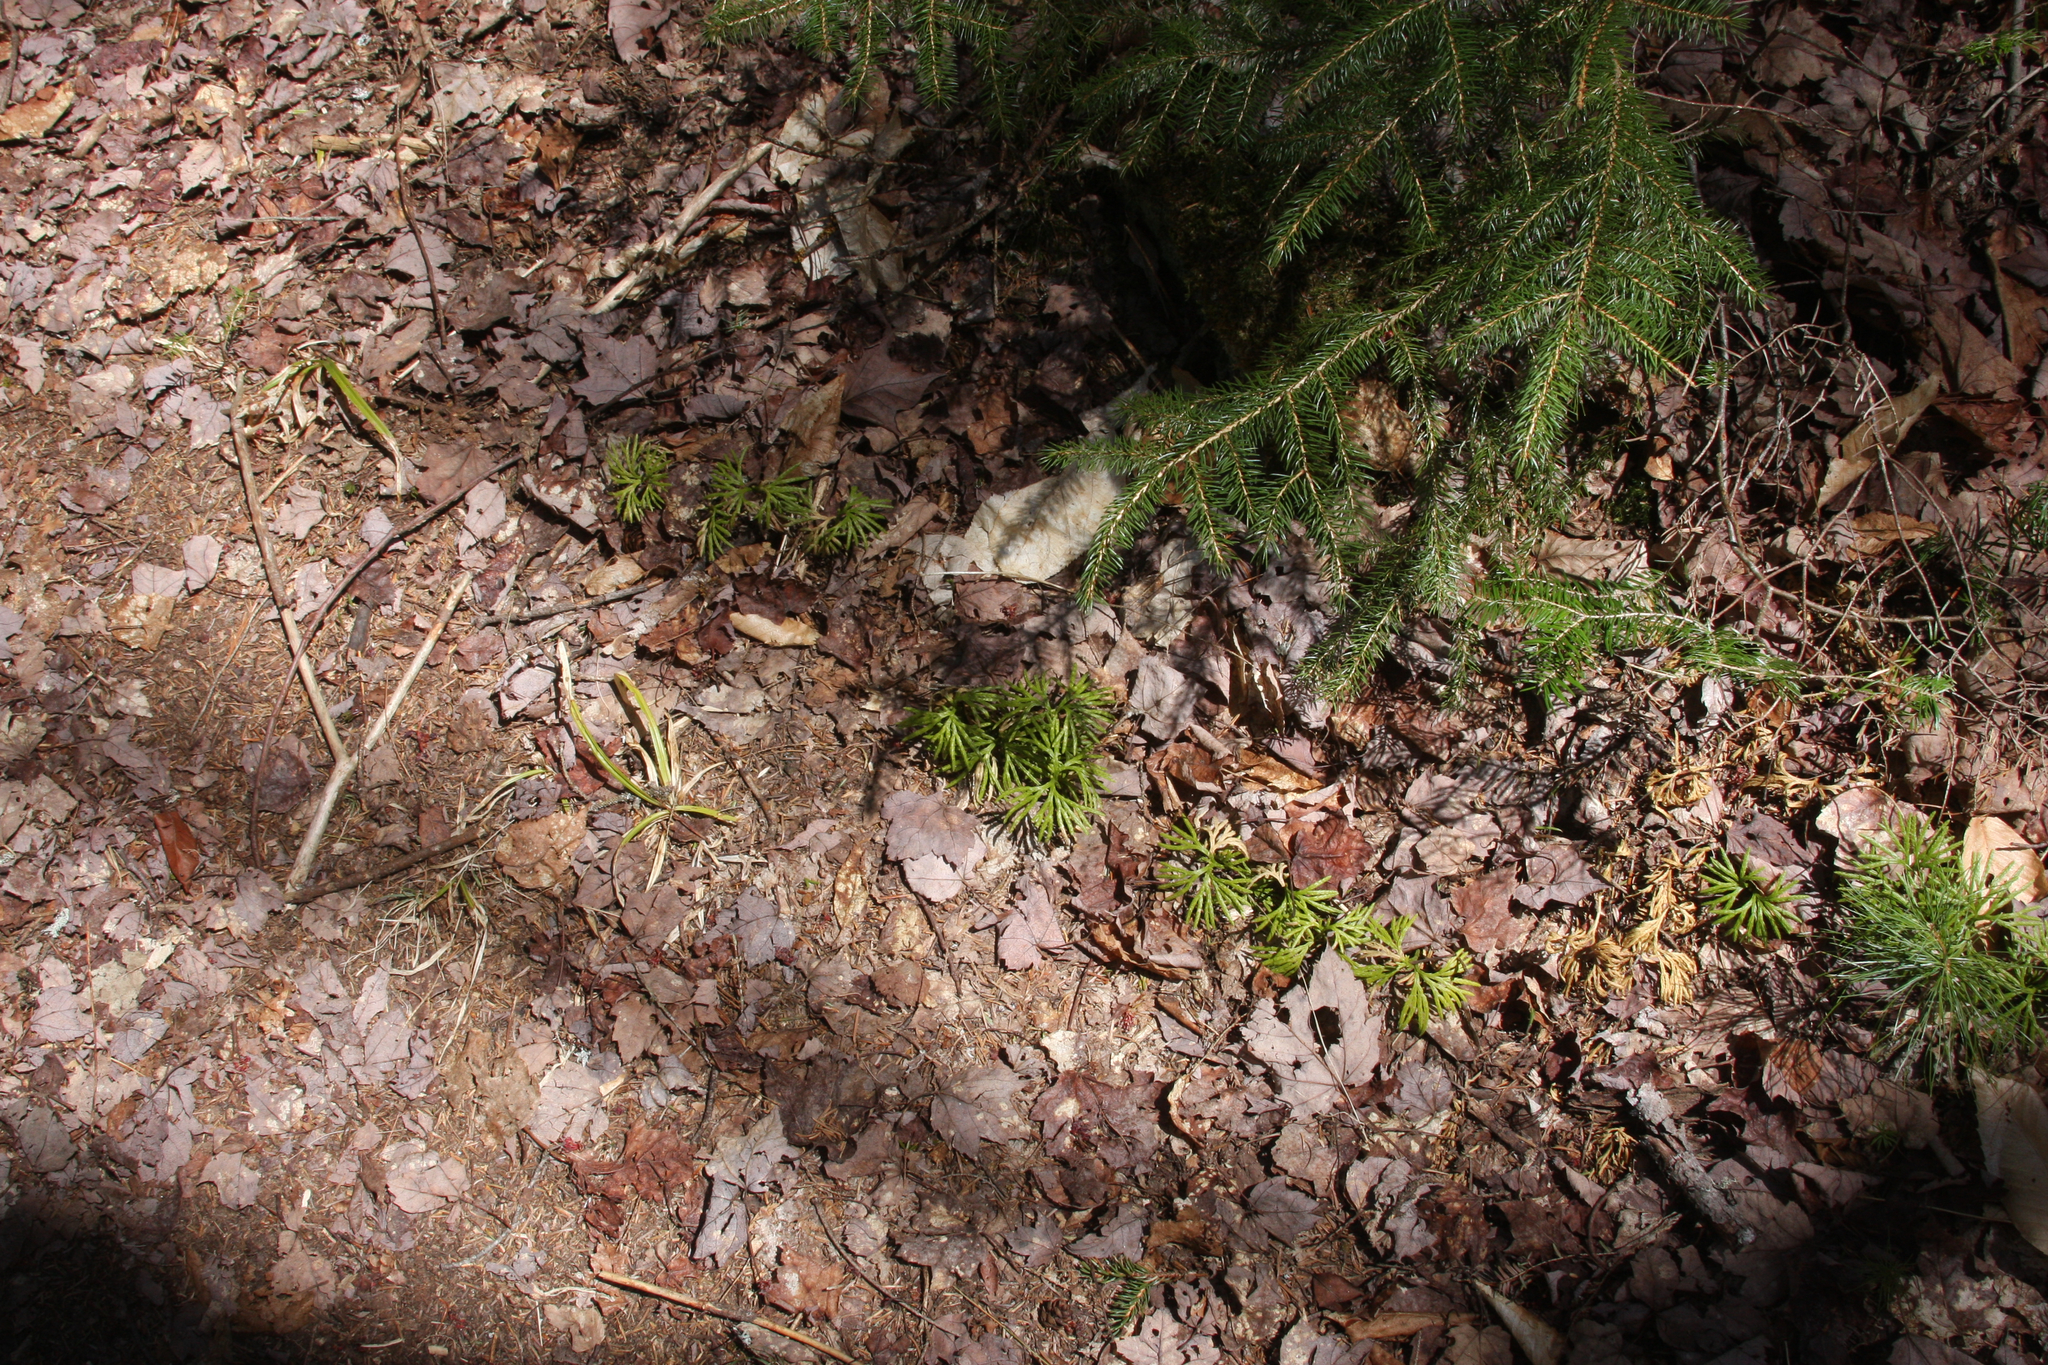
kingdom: Plantae
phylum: Tracheophyta
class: Lycopodiopsida
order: Lycopodiales
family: Lycopodiaceae
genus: Diphasiastrum
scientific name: Diphasiastrum digitatum
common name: Southern running-pine
